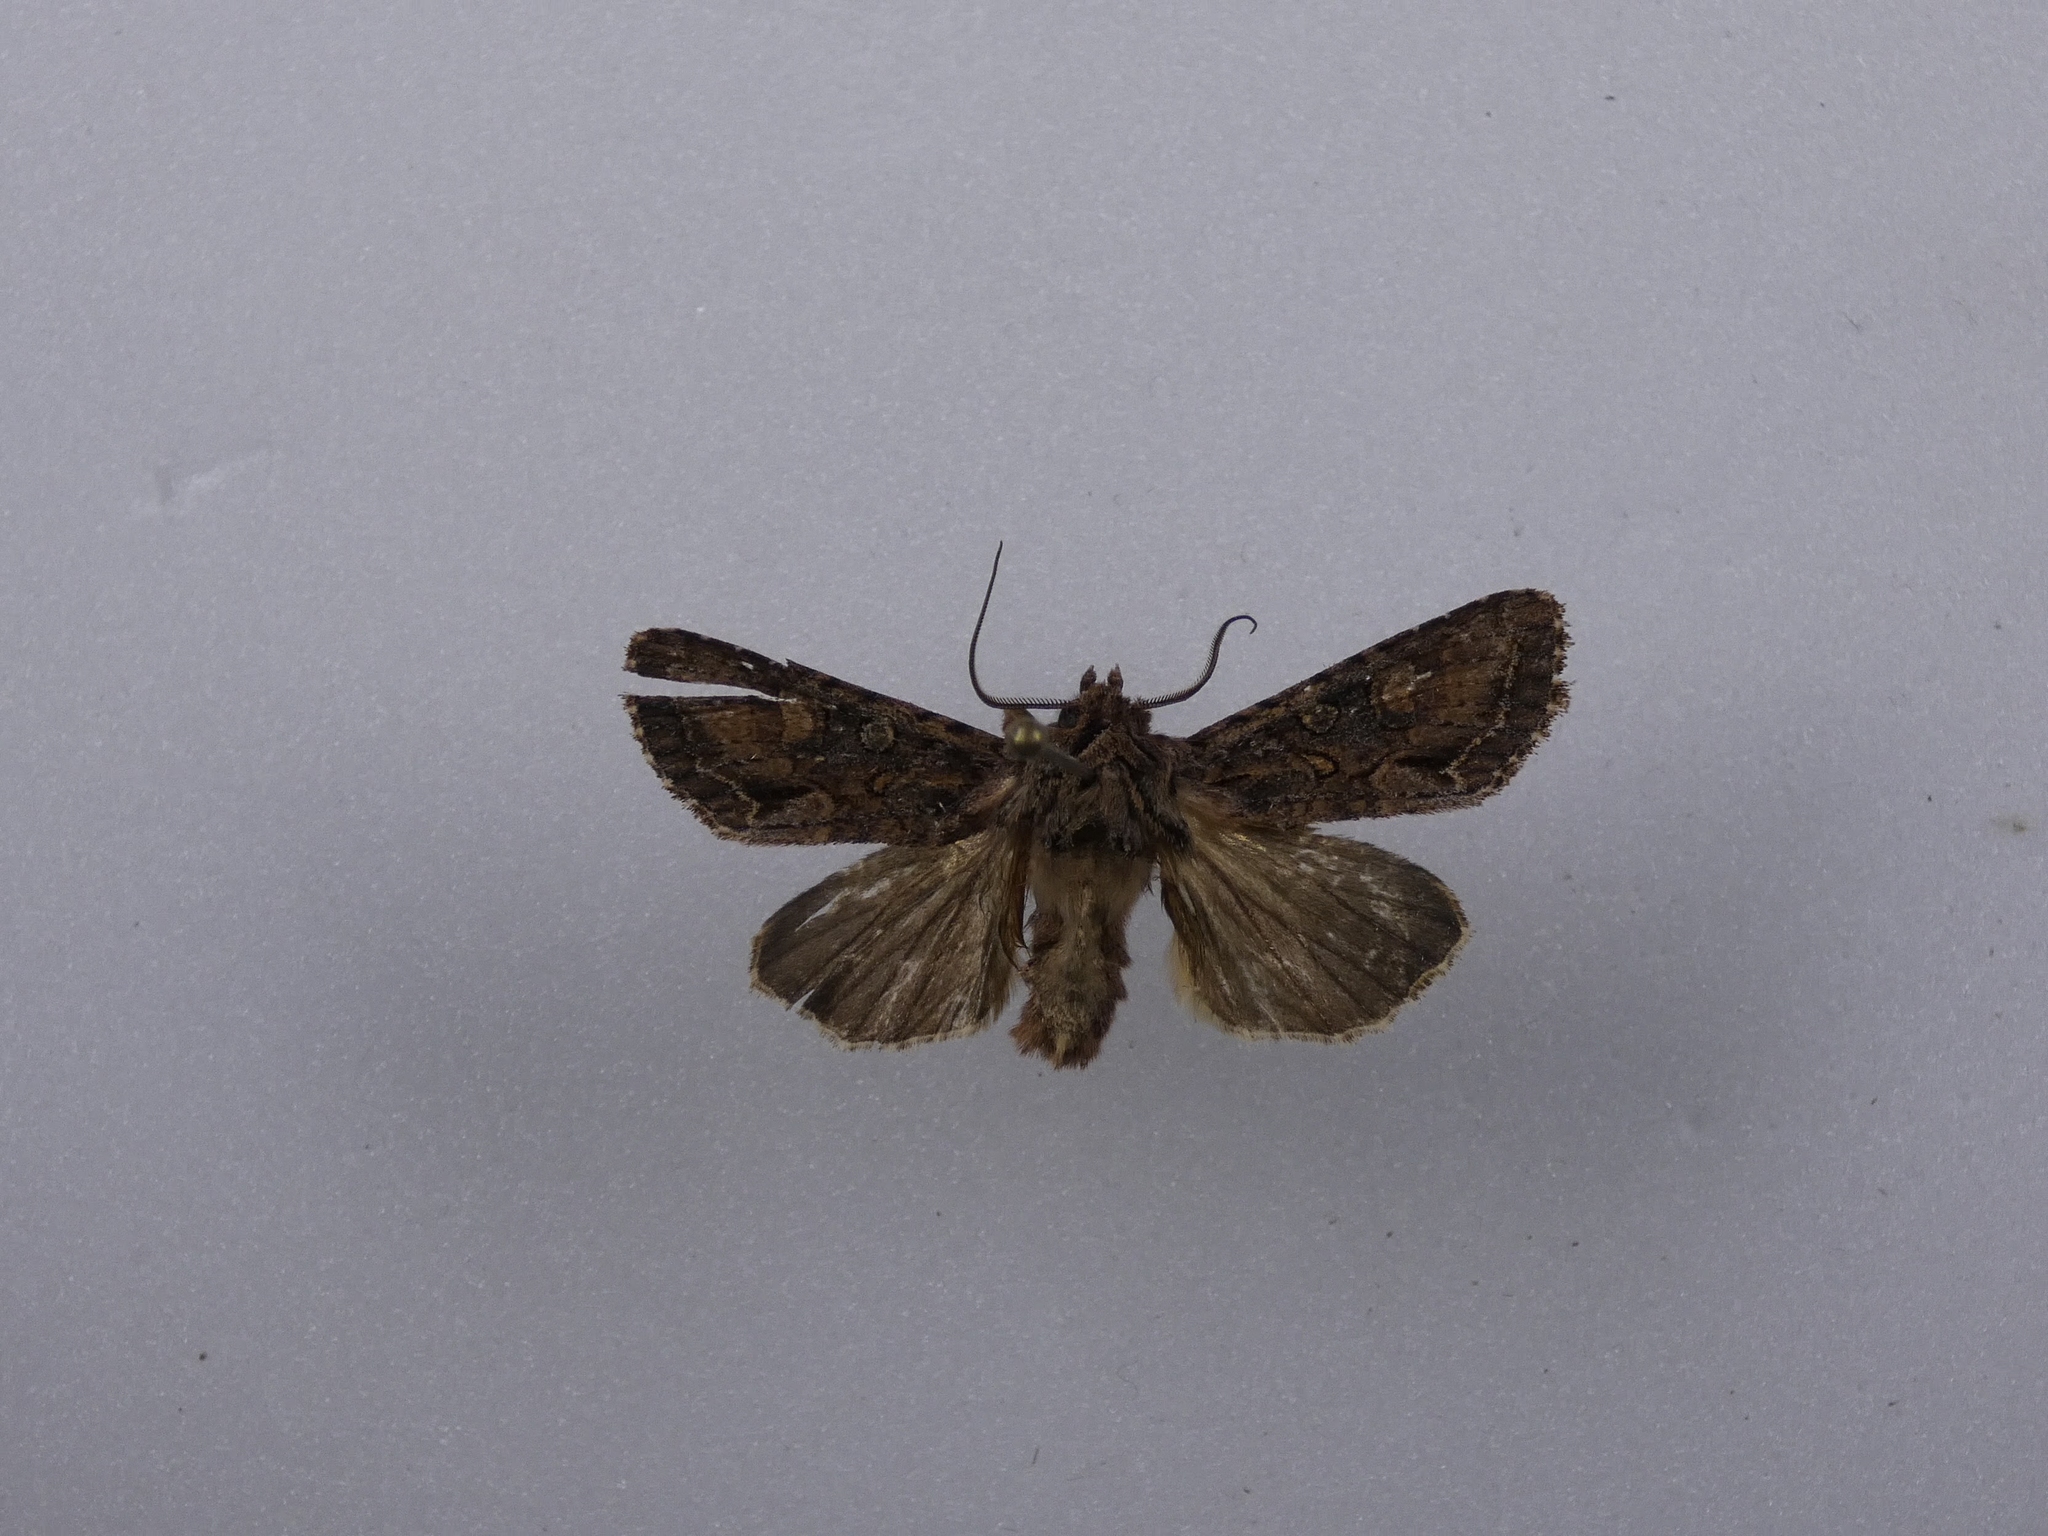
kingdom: Animalia
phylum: Arthropoda
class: Insecta
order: Lepidoptera
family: Noctuidae
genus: Ichneutica
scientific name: Ichneutica mutans
